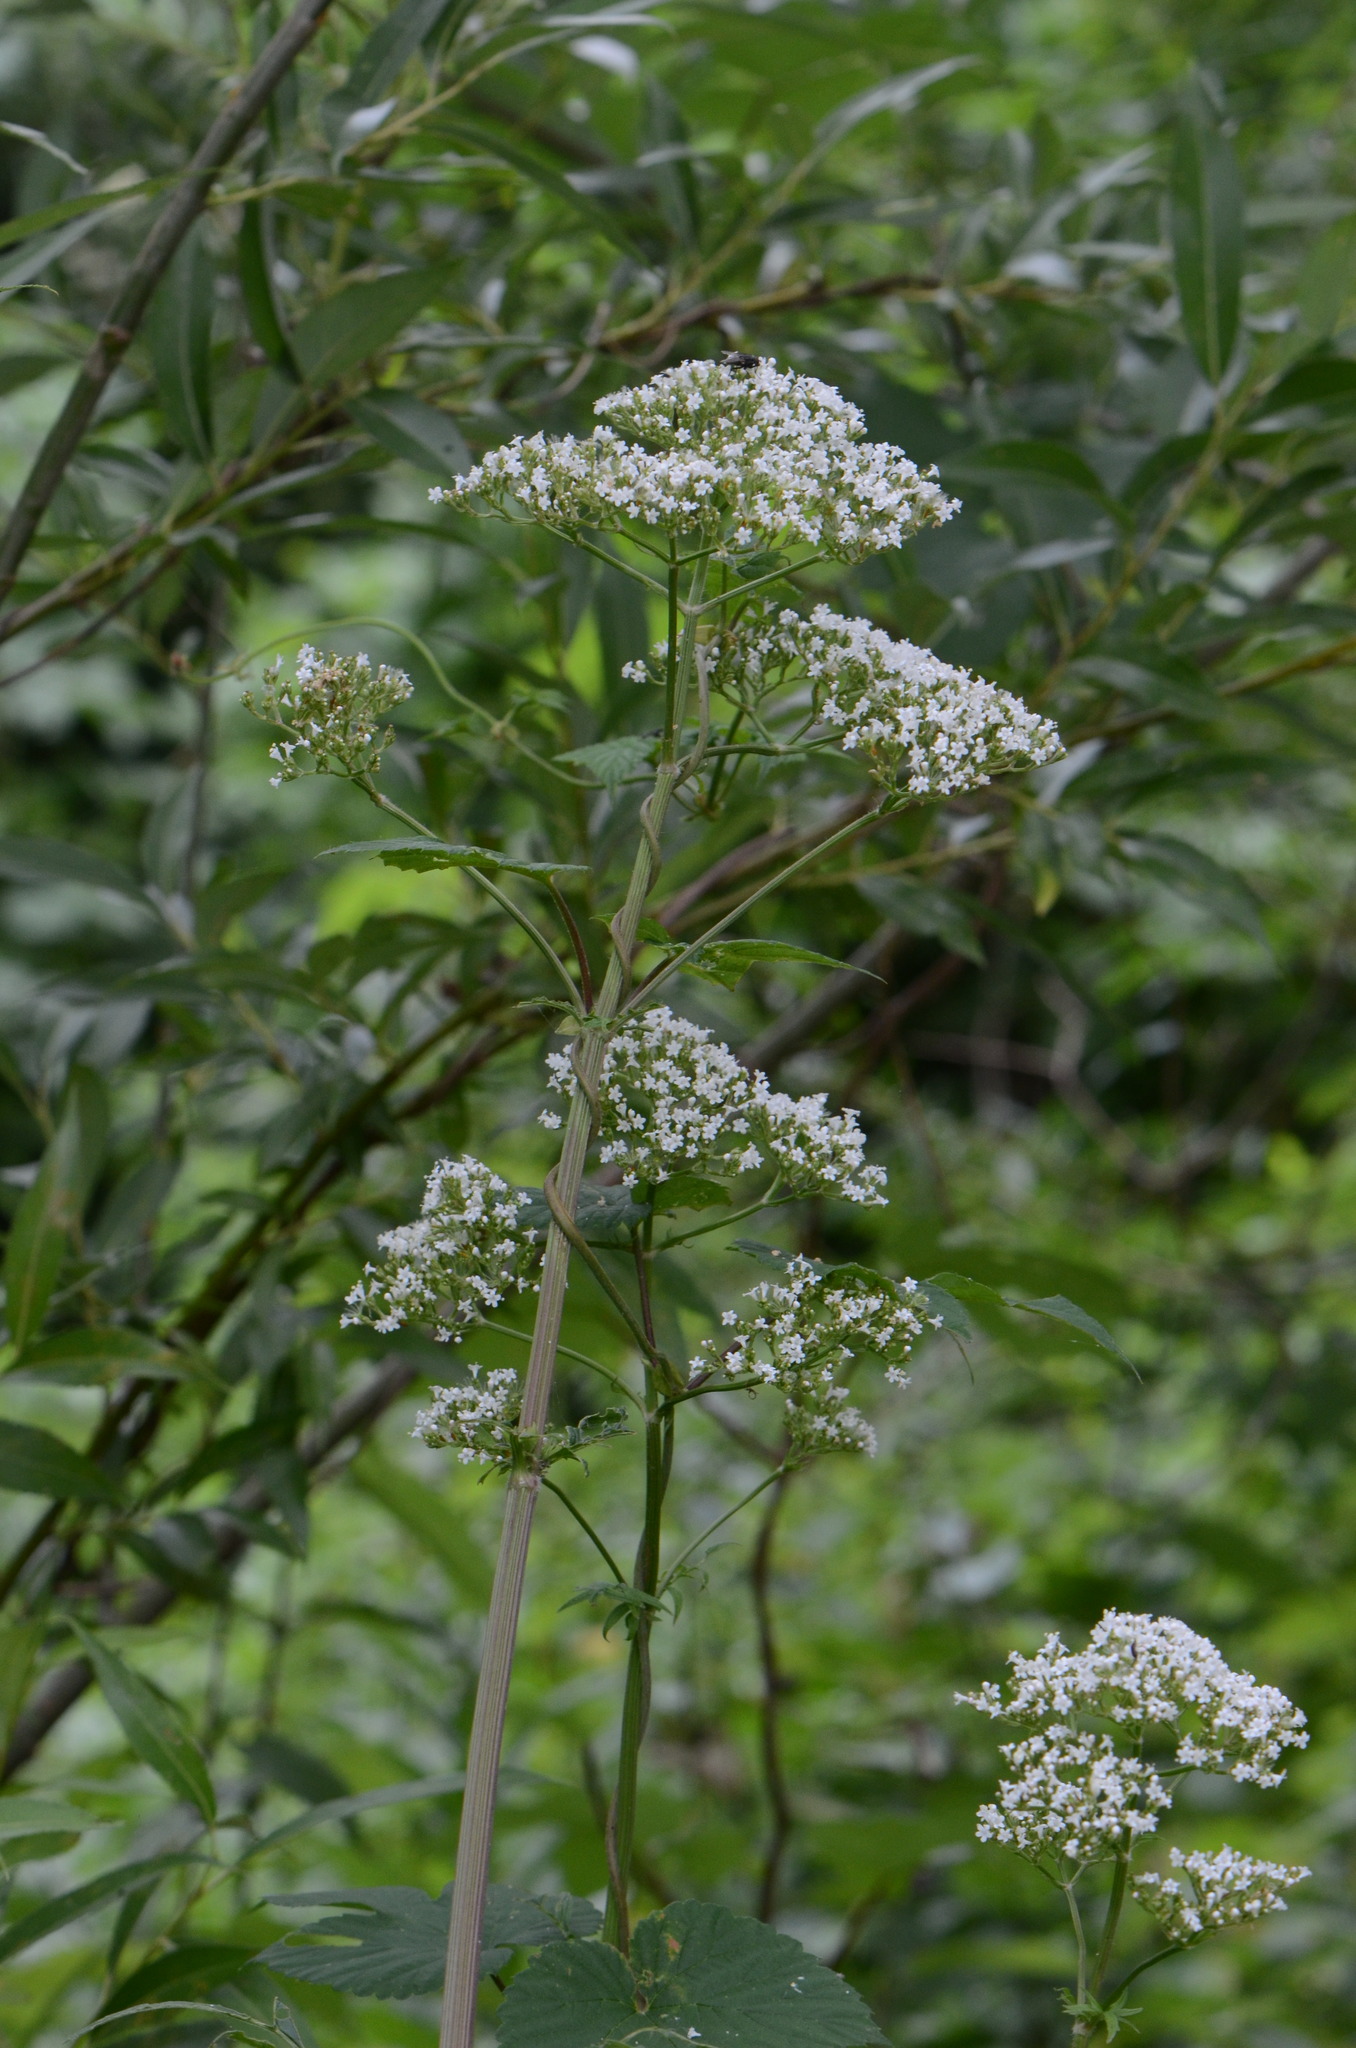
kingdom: Plantae
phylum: Tracheophyta
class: Magnoliopsida
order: Dipsacales
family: Caprifoliaceae
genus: Valeriana
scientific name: Valeriana officinalis
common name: Common valerian
